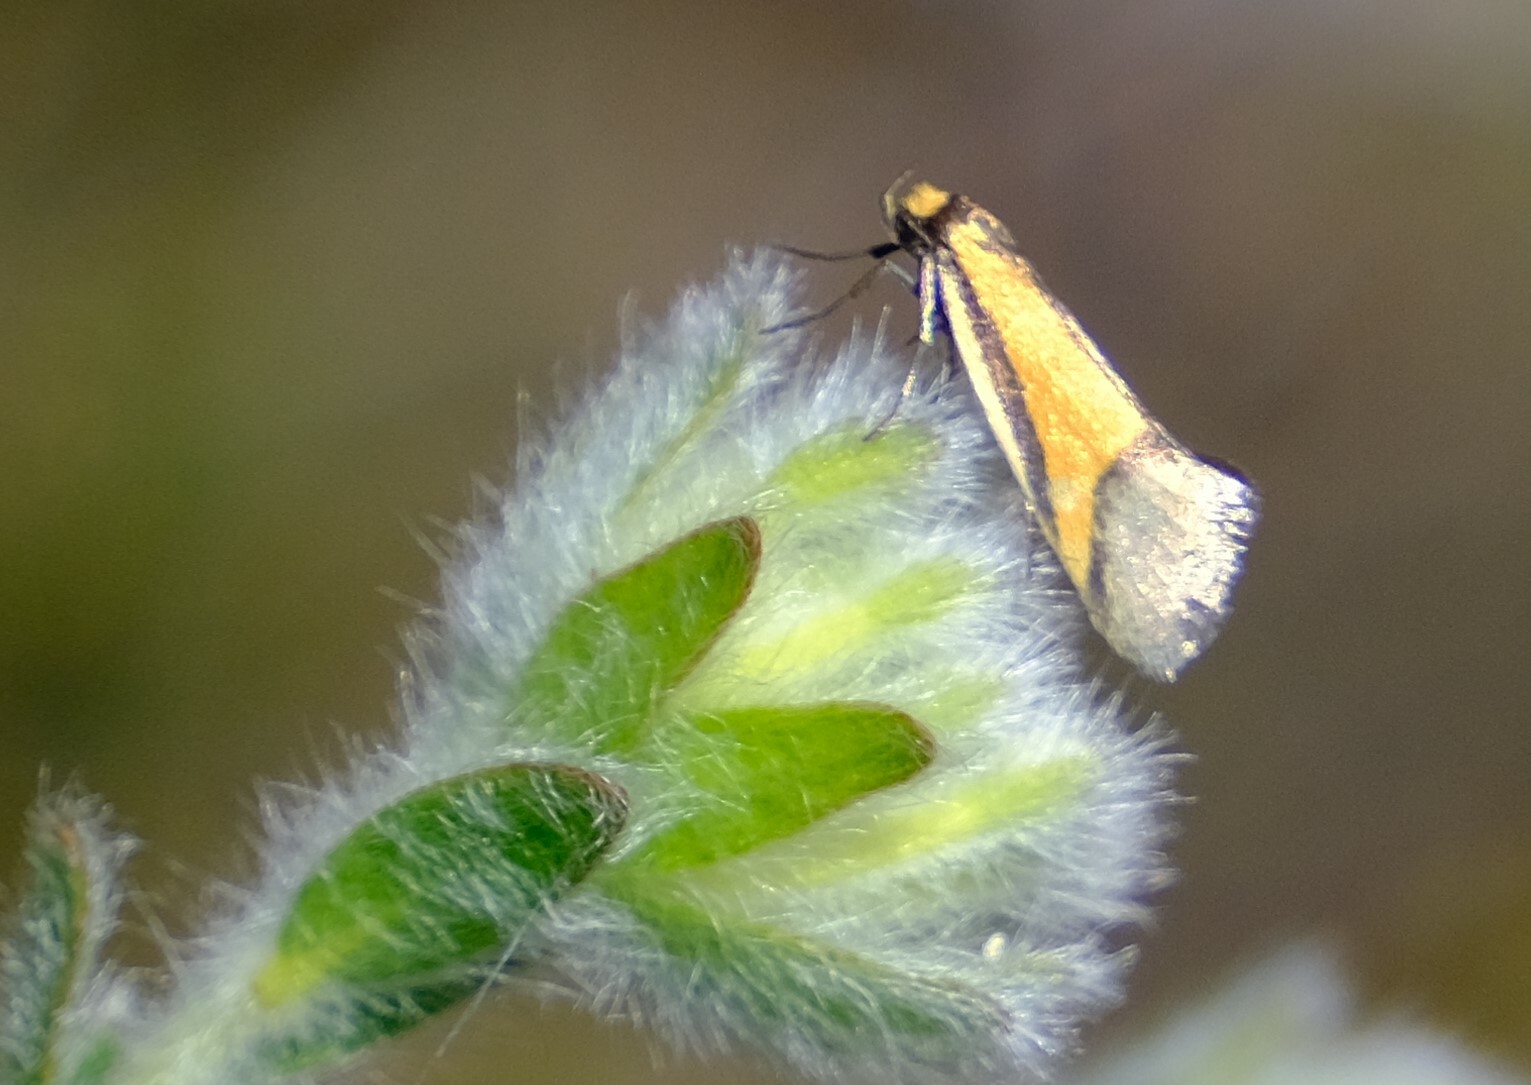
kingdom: Animalia
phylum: Arthropoda
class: Insecta
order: Lepidoptera
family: Oecophoridae
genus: Philobota
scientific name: Philobota arabella
